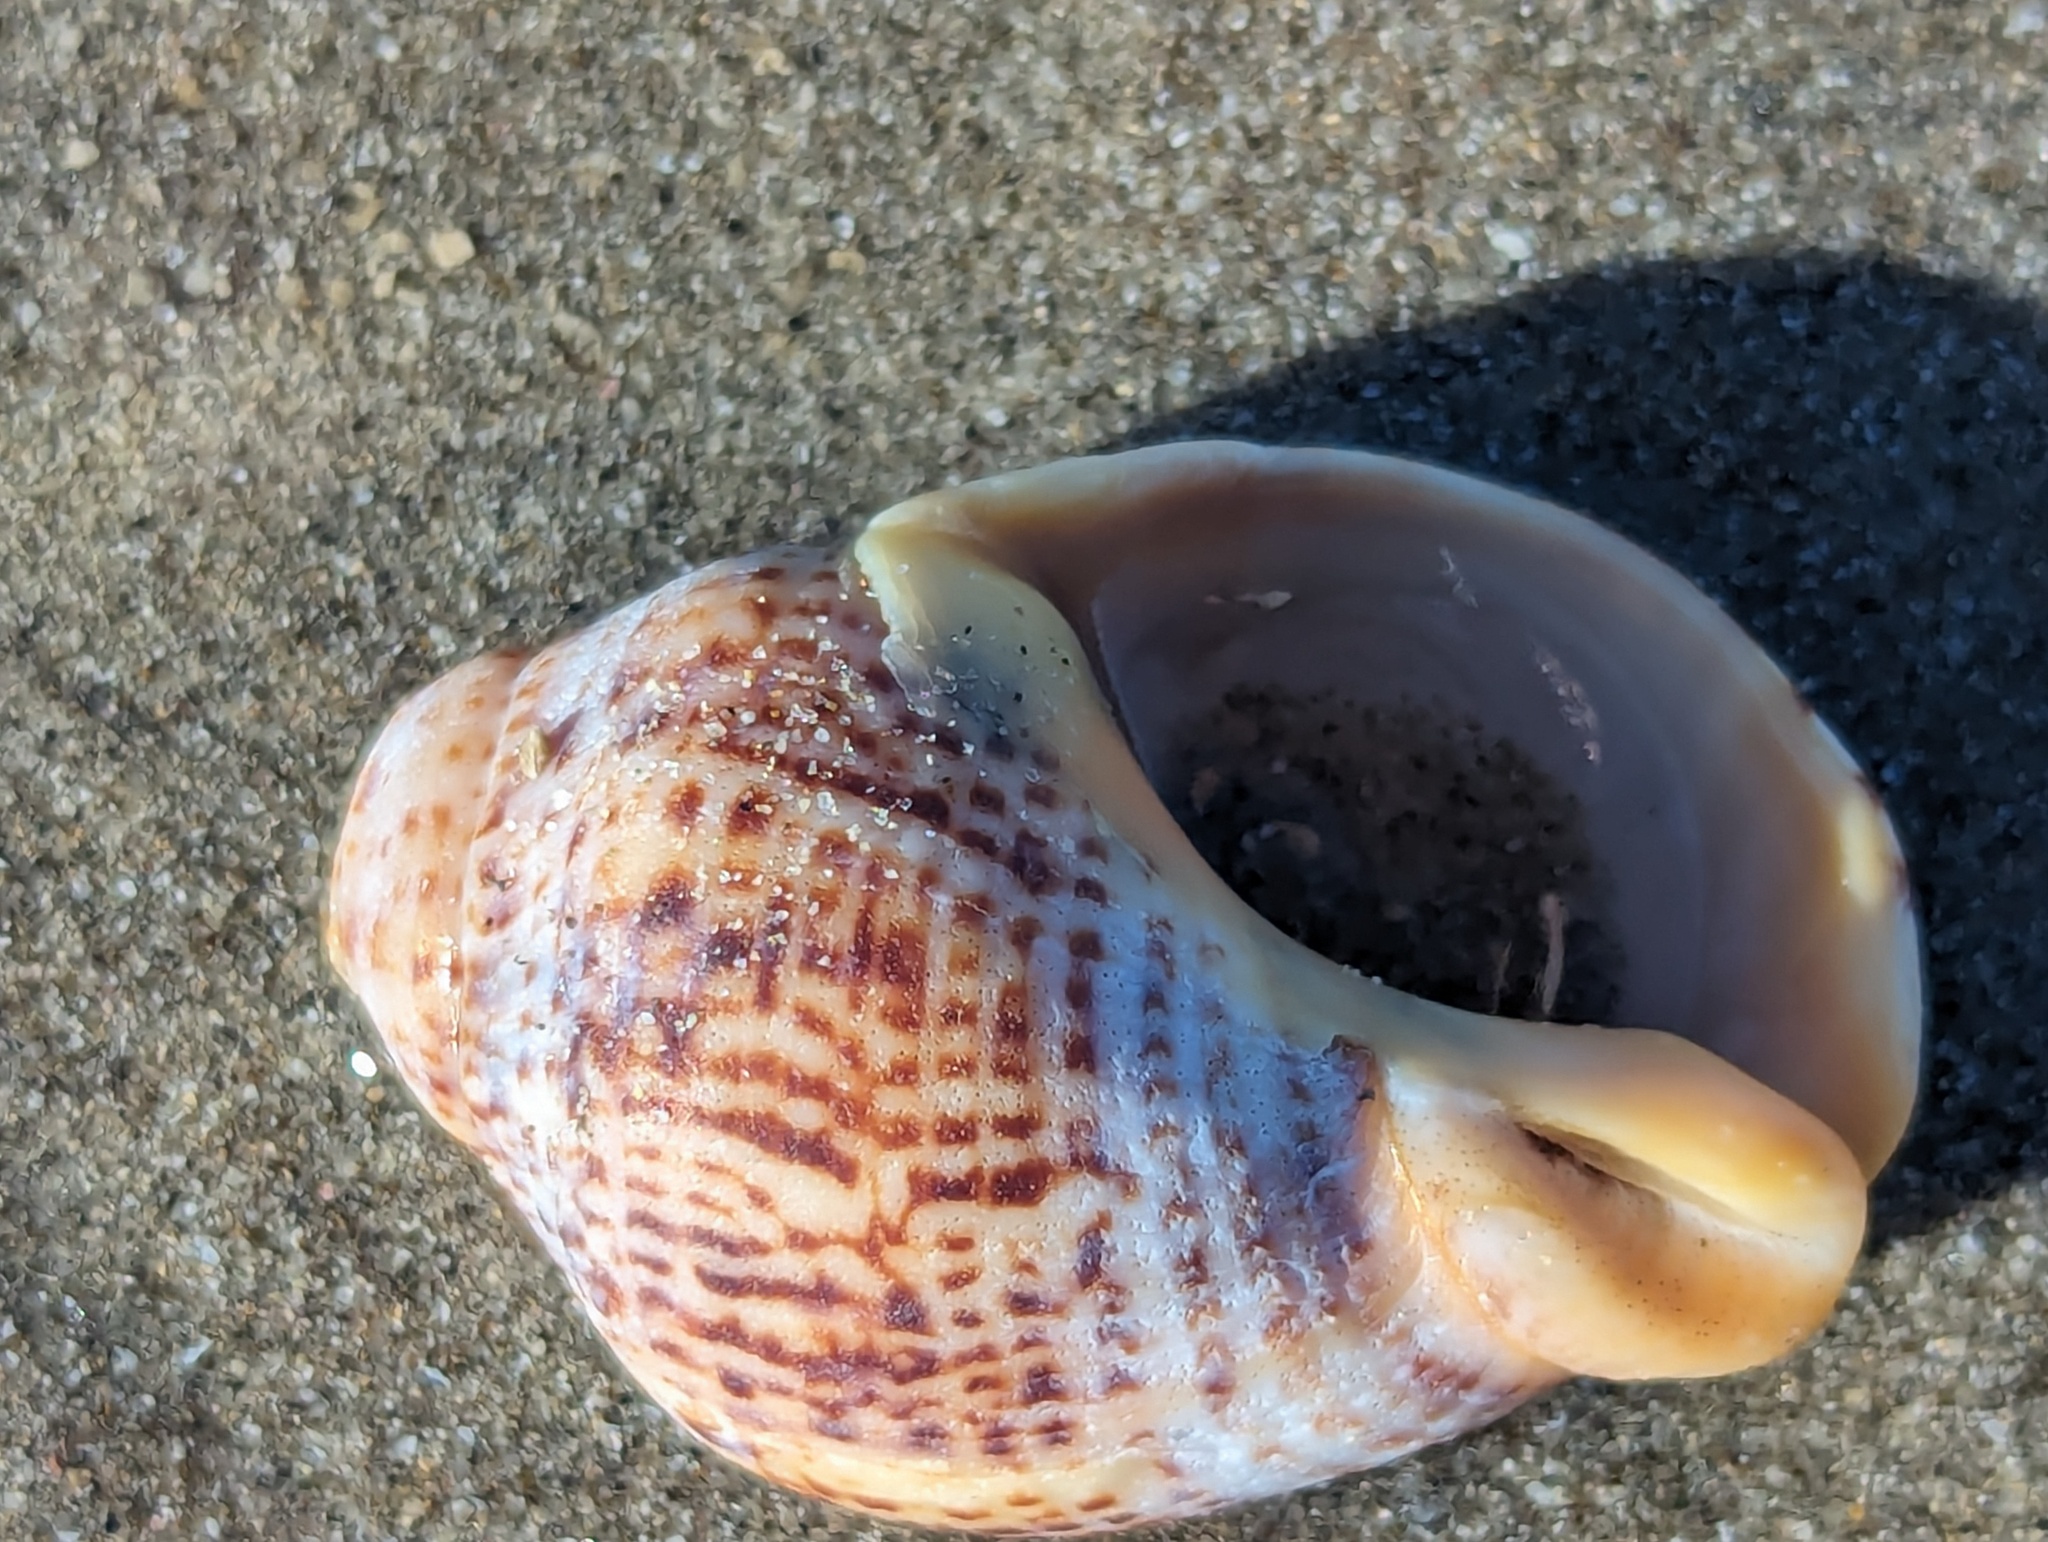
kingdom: Animalia
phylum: Mollusca
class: Gastropoda
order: Neogastropoda
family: Cominellidae
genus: Cominella
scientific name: Cominella adspersa
